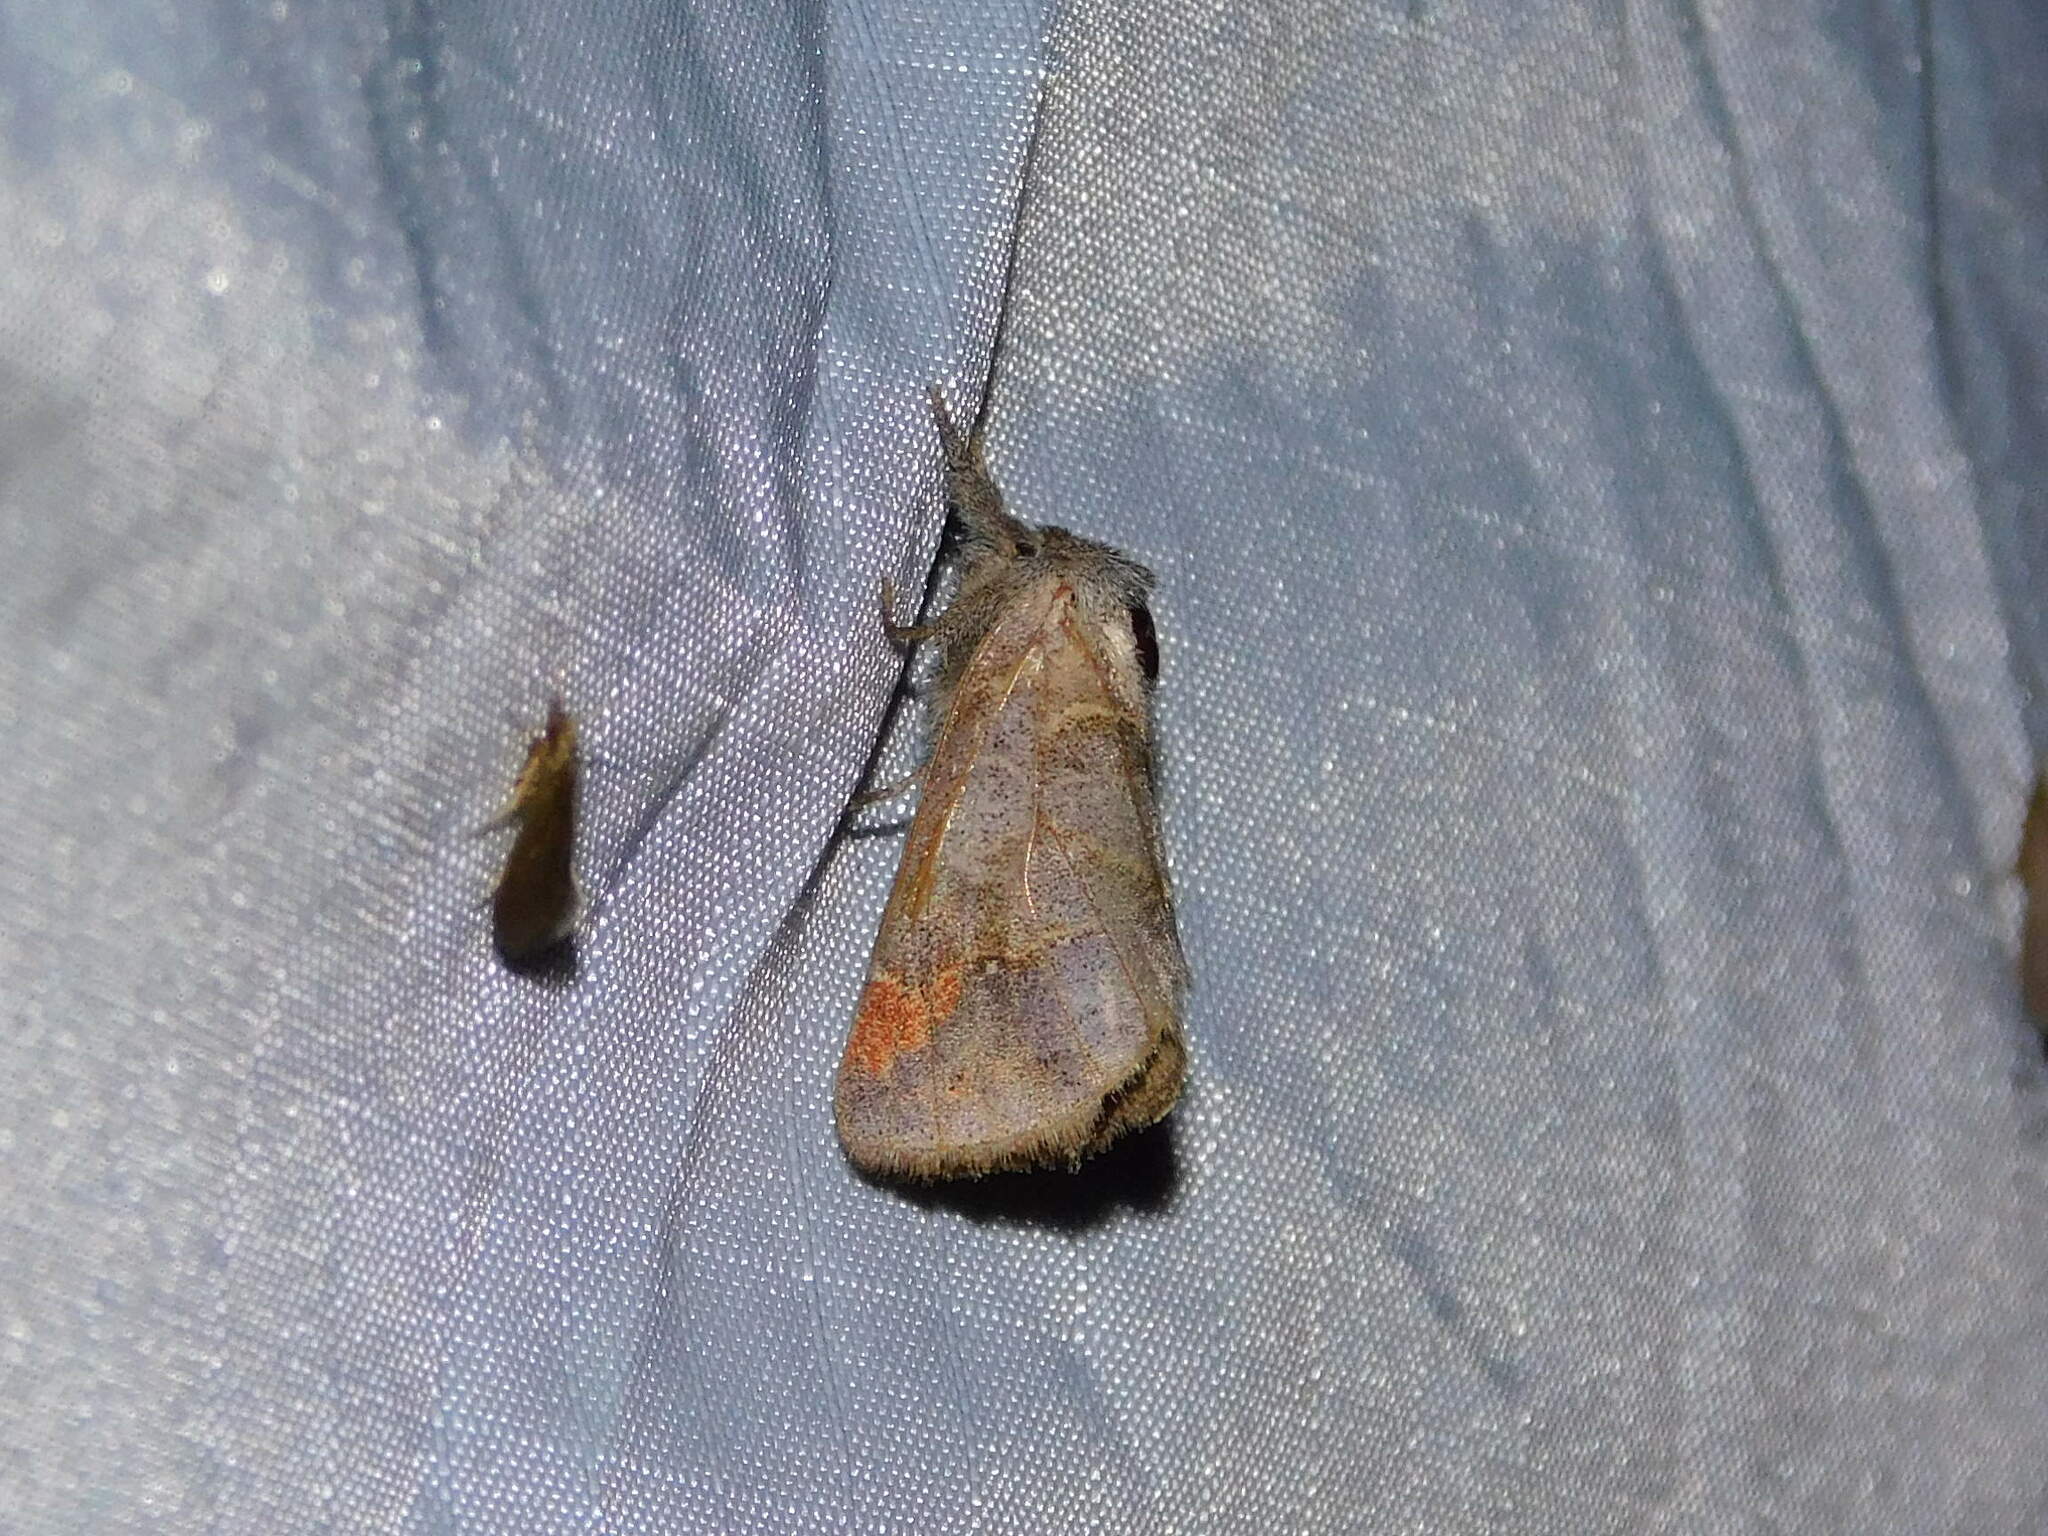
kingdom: Animalia
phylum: Arthropoda
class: Insecta
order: Lepidoptera
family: Notodontidae
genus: Clostera
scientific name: Clostera pigra
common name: Small chocolate-tip
